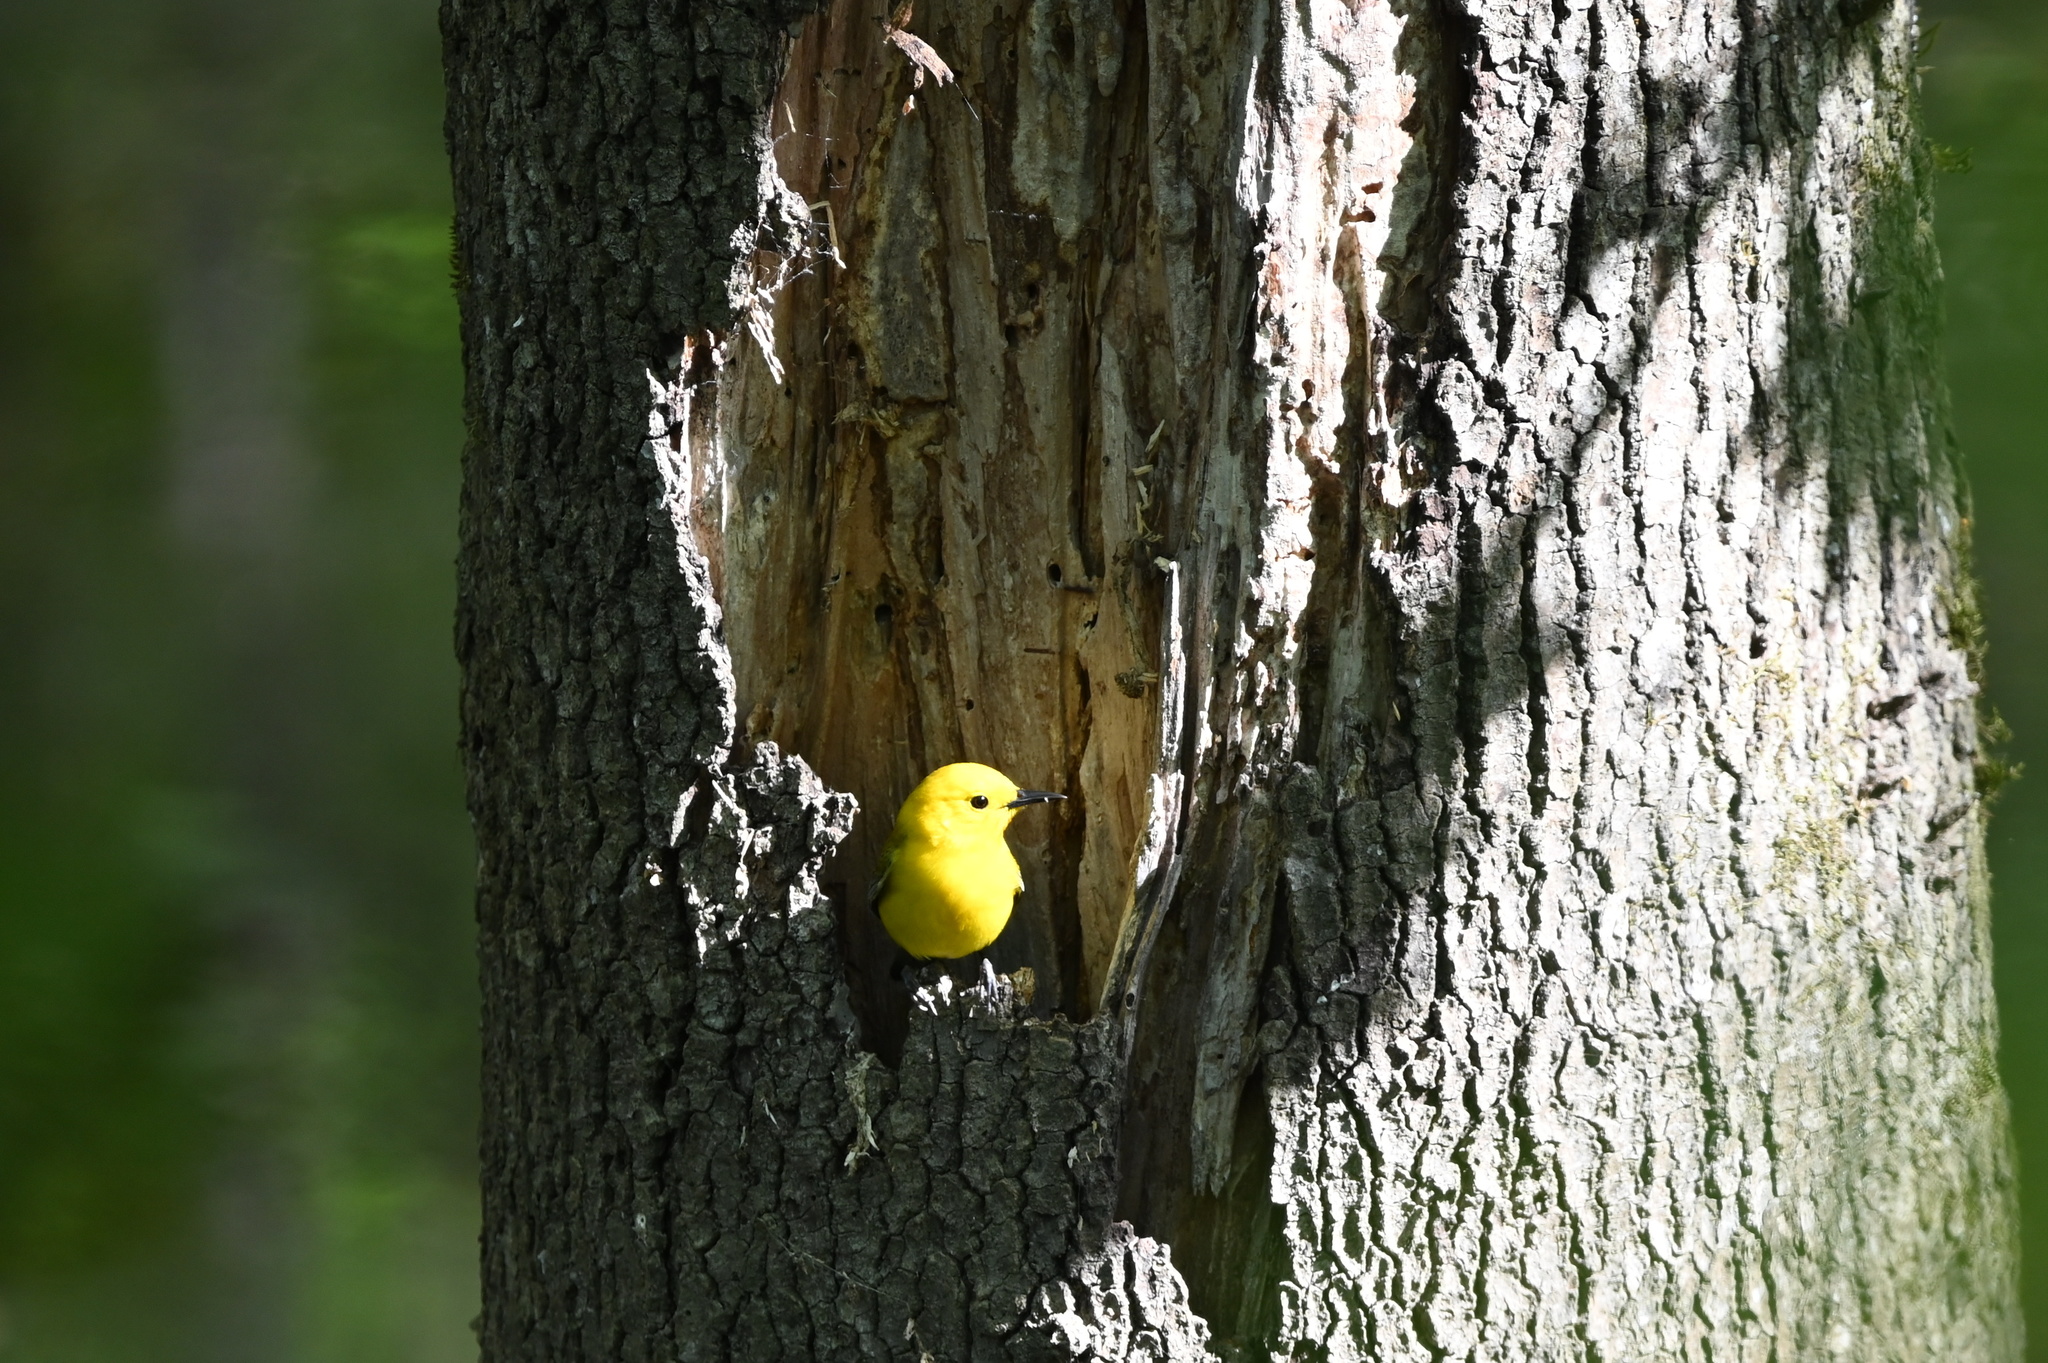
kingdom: Animalia
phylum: Chordata
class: Aves
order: Passeriformes
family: Parulidae
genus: Protonotaria
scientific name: Protonotaria citrea
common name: Prothonotary warbler
